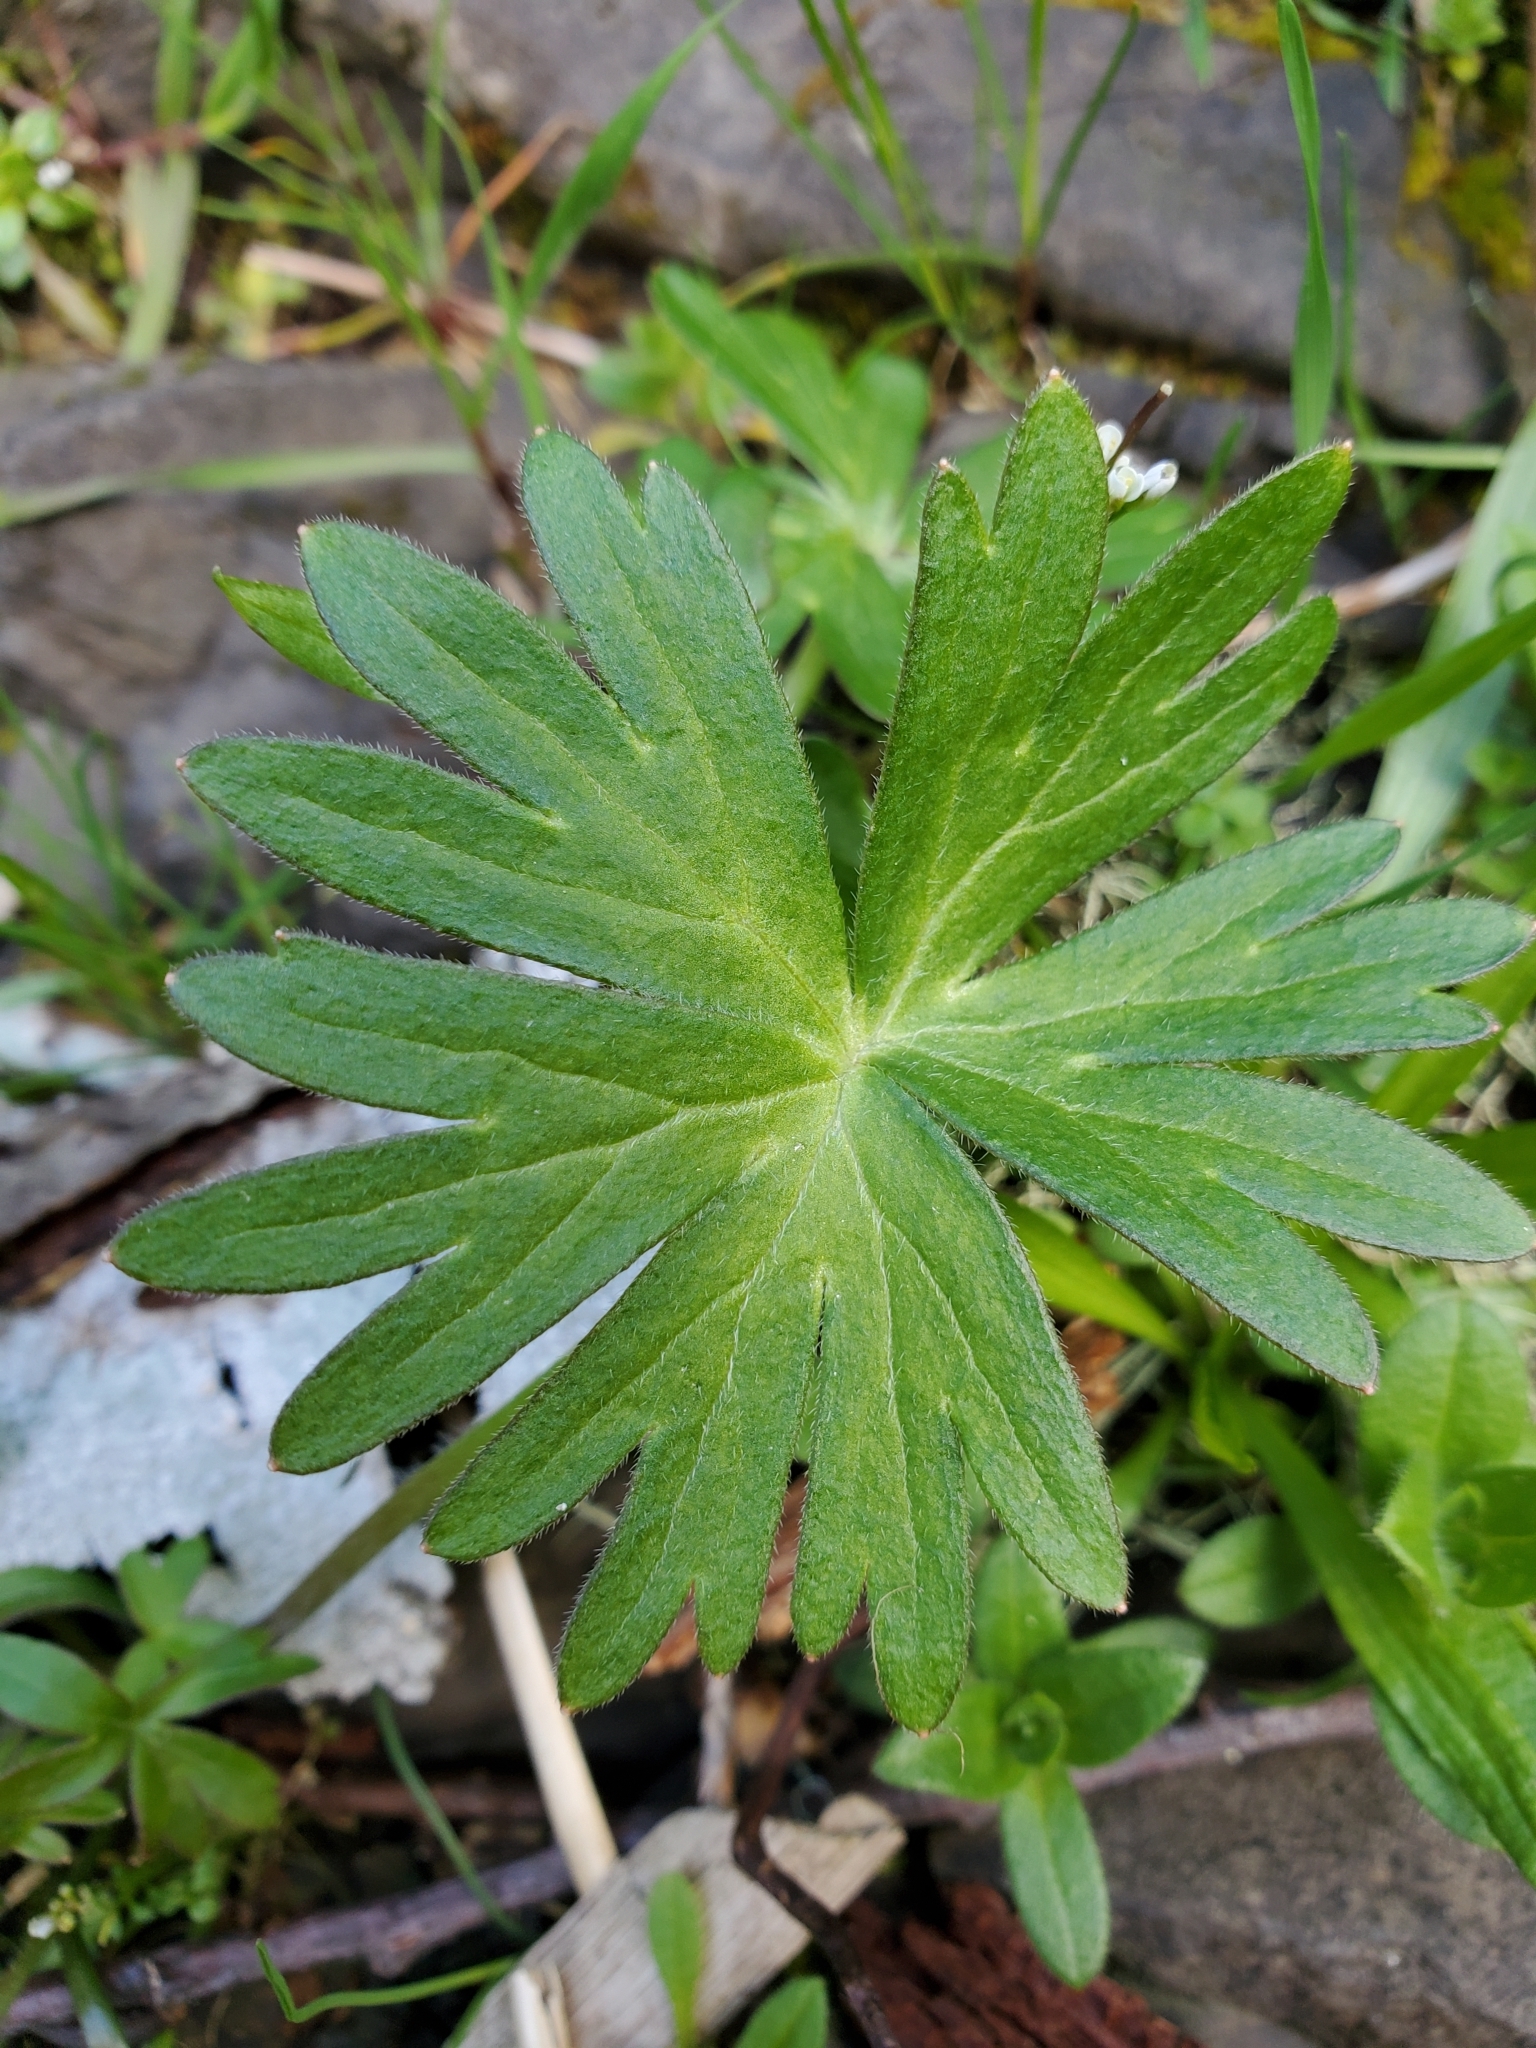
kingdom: Plantae
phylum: Tracheophyta
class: Magnoliopsida
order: Ranunculales
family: Ranunculaceae
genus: Delphinium
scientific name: Delphinium menziesii
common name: Menzies's larkspur
